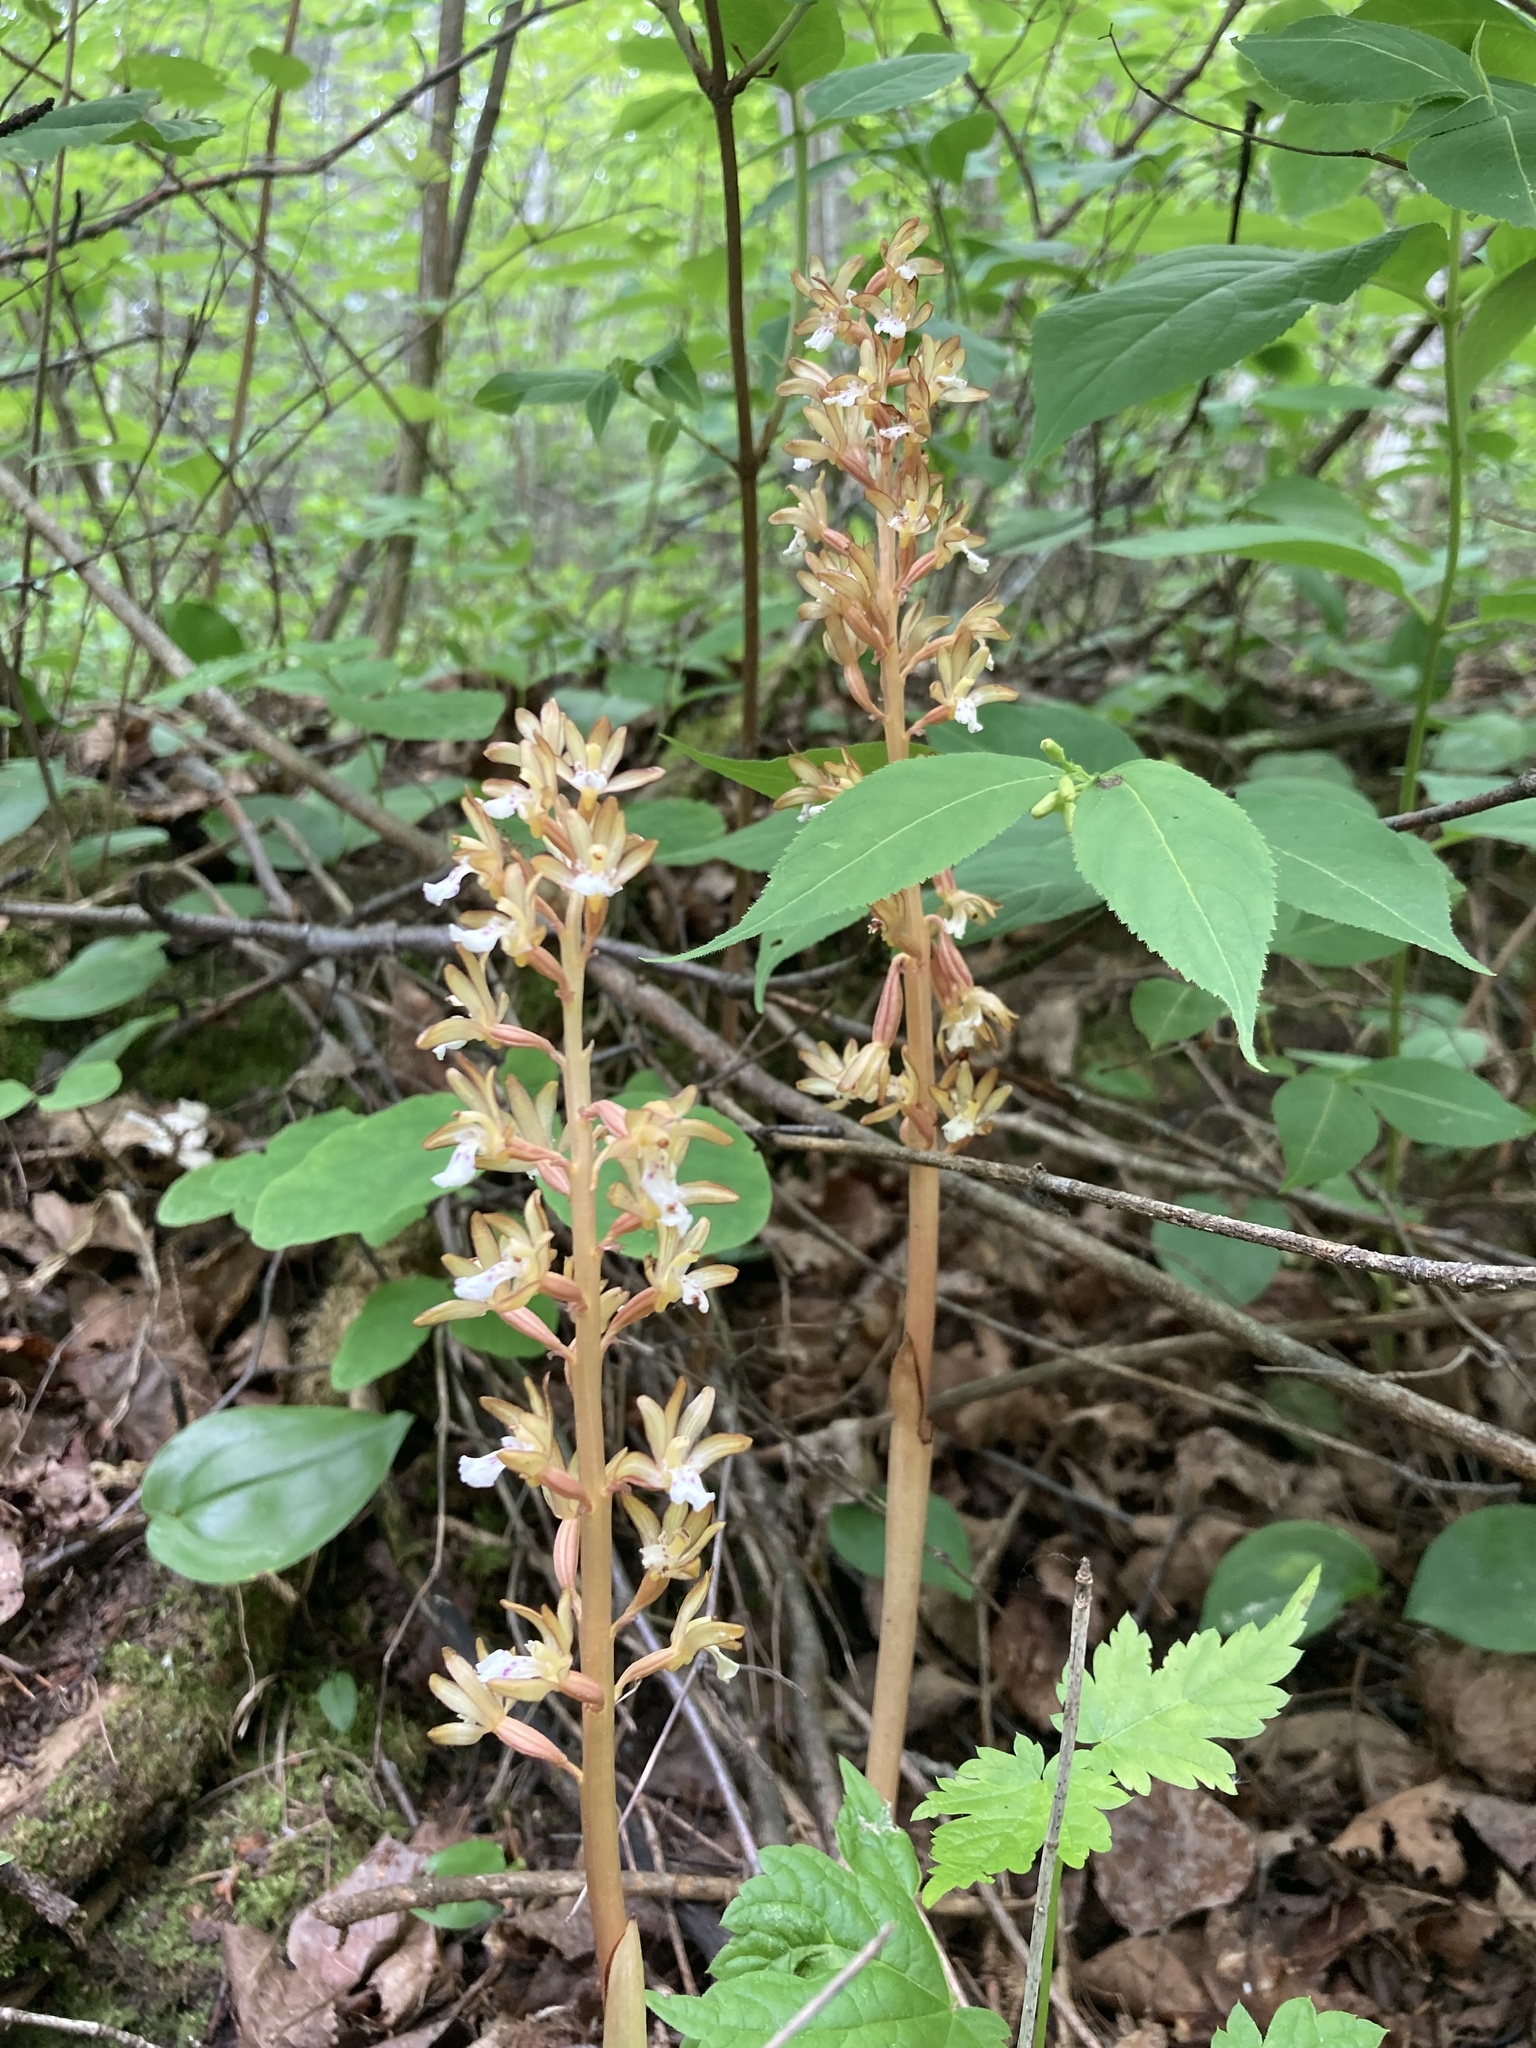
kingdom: Plantae
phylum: Tracheophyta
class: Liliopsida
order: Asparagales
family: Orchidaceae
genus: Corallorhiza
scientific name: Corallorhiza maculata
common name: Spotted coralroot
